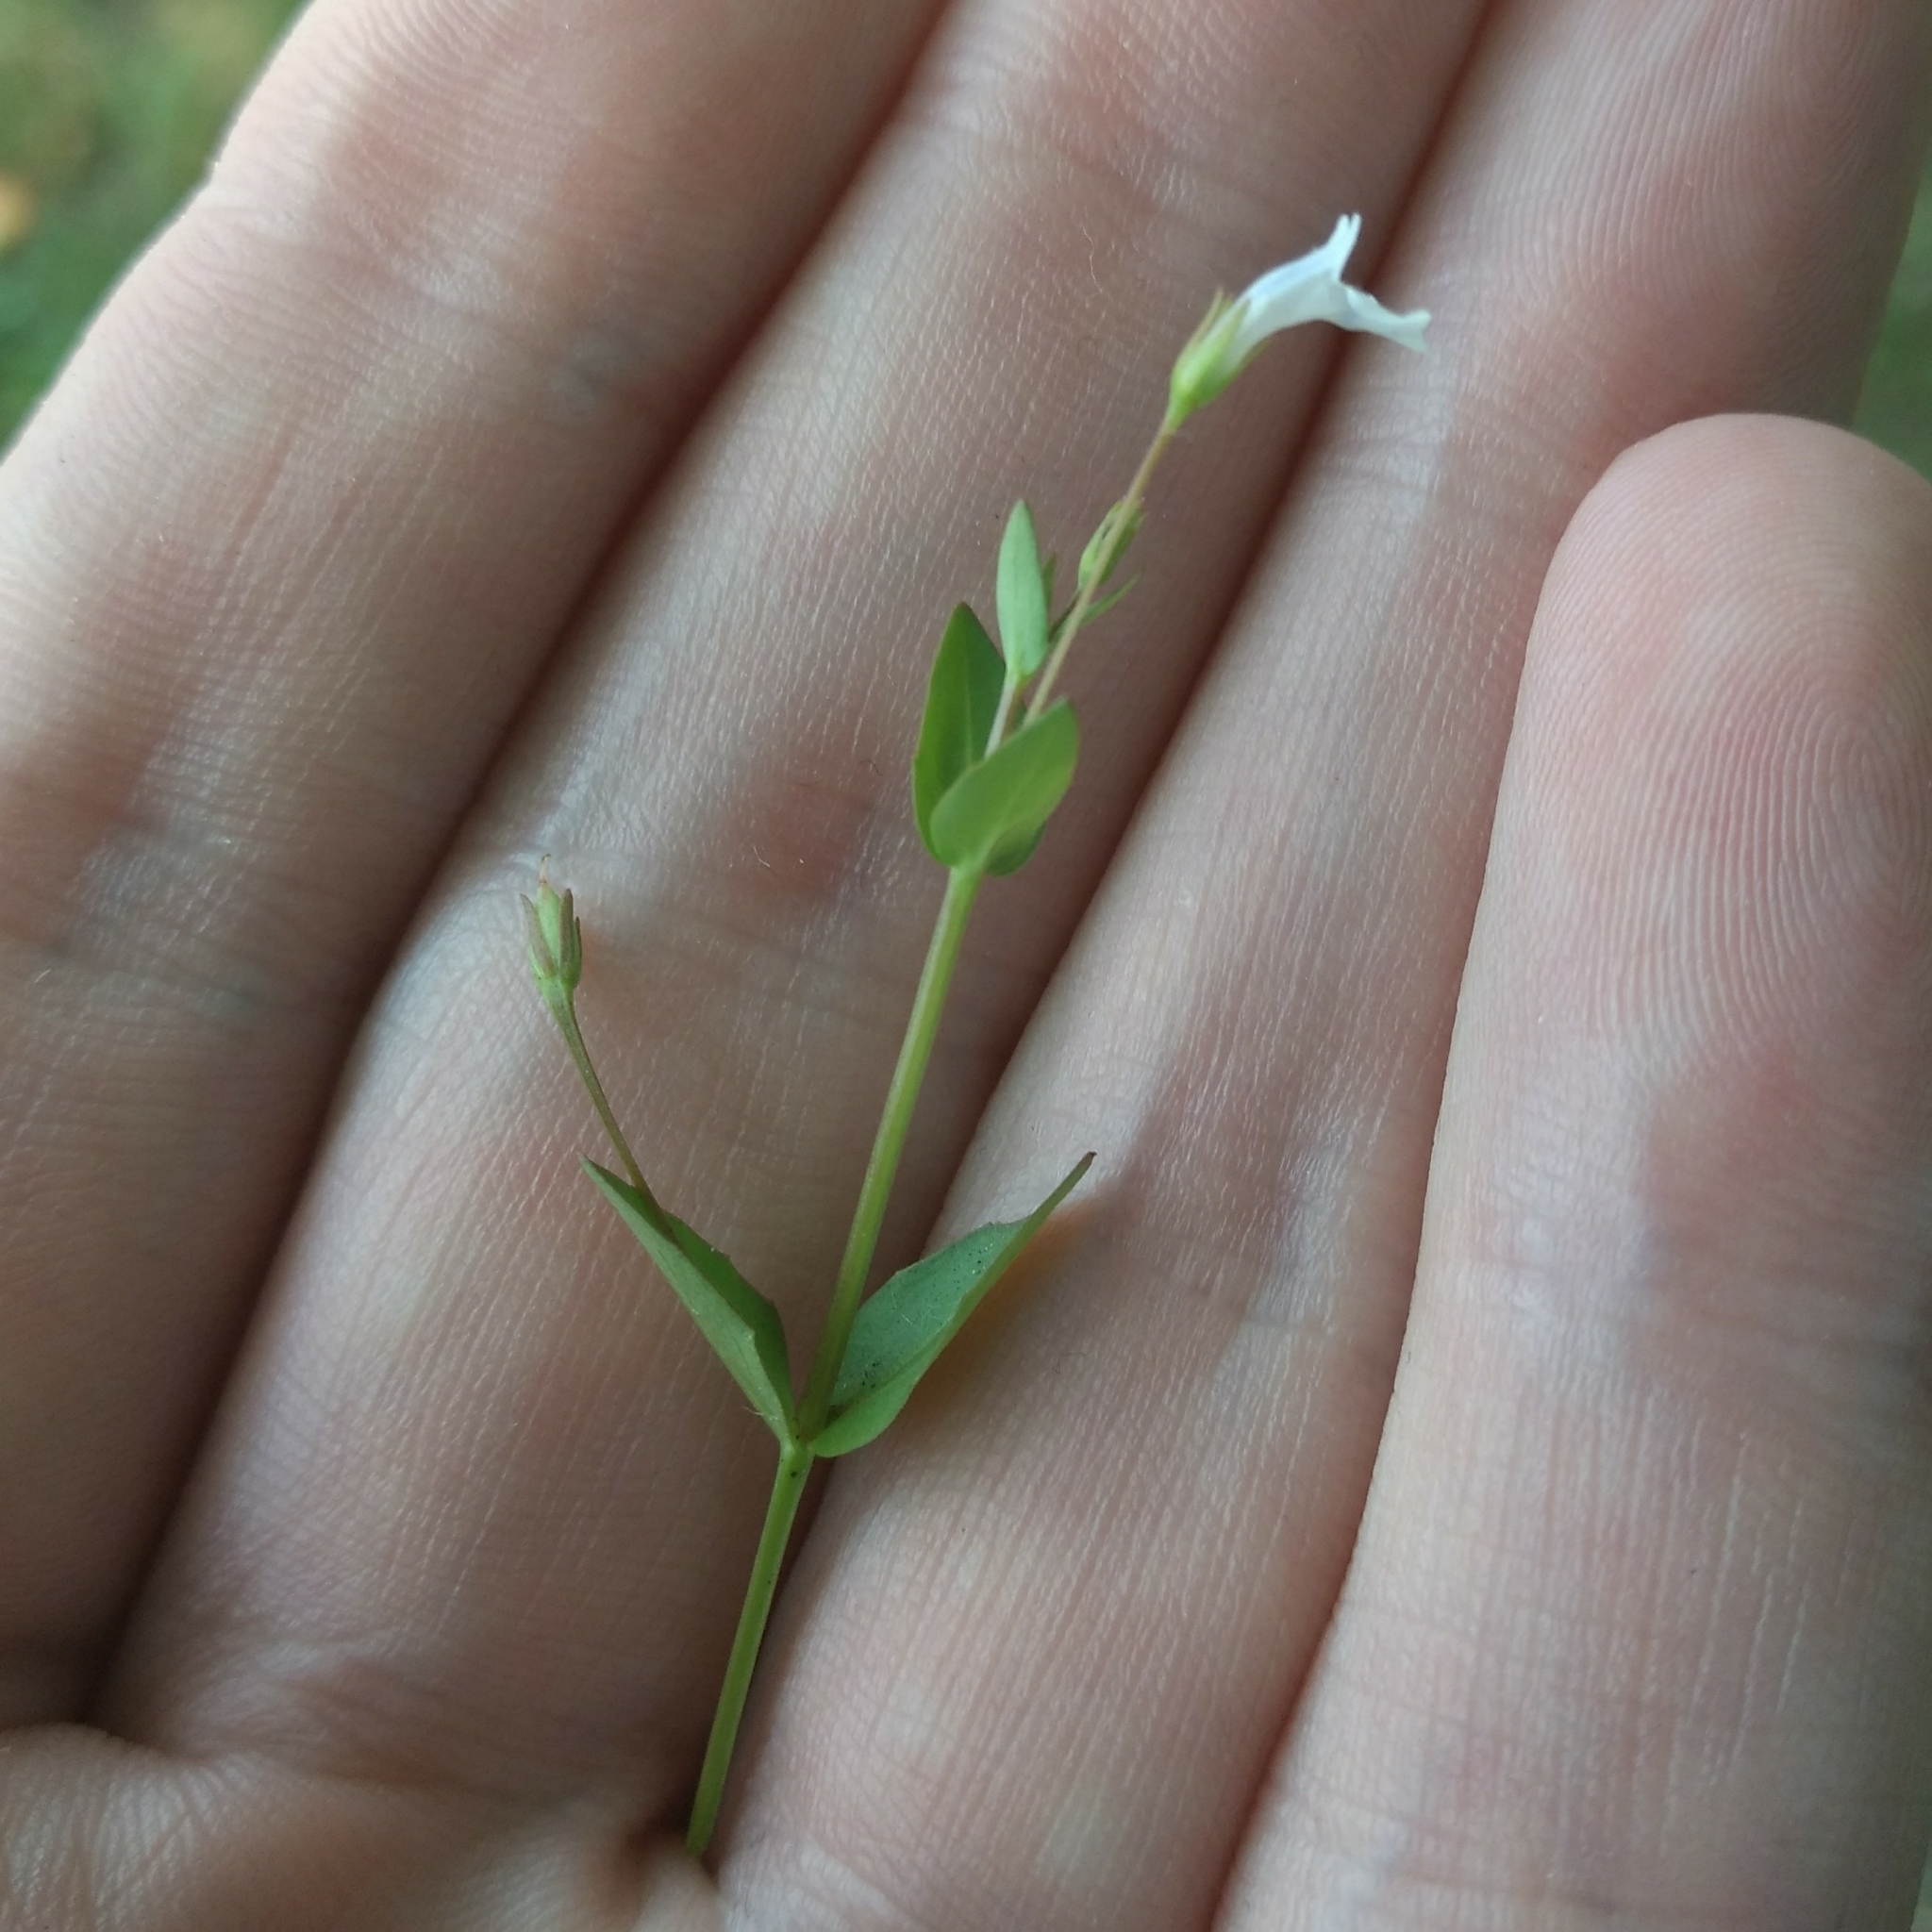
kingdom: Plantae
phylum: Tracheophyta
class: Magnoliopsida
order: Lamiales
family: Linderniaceae
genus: Lindernia
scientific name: Lindernia dubia
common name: Annual false pimpernel
